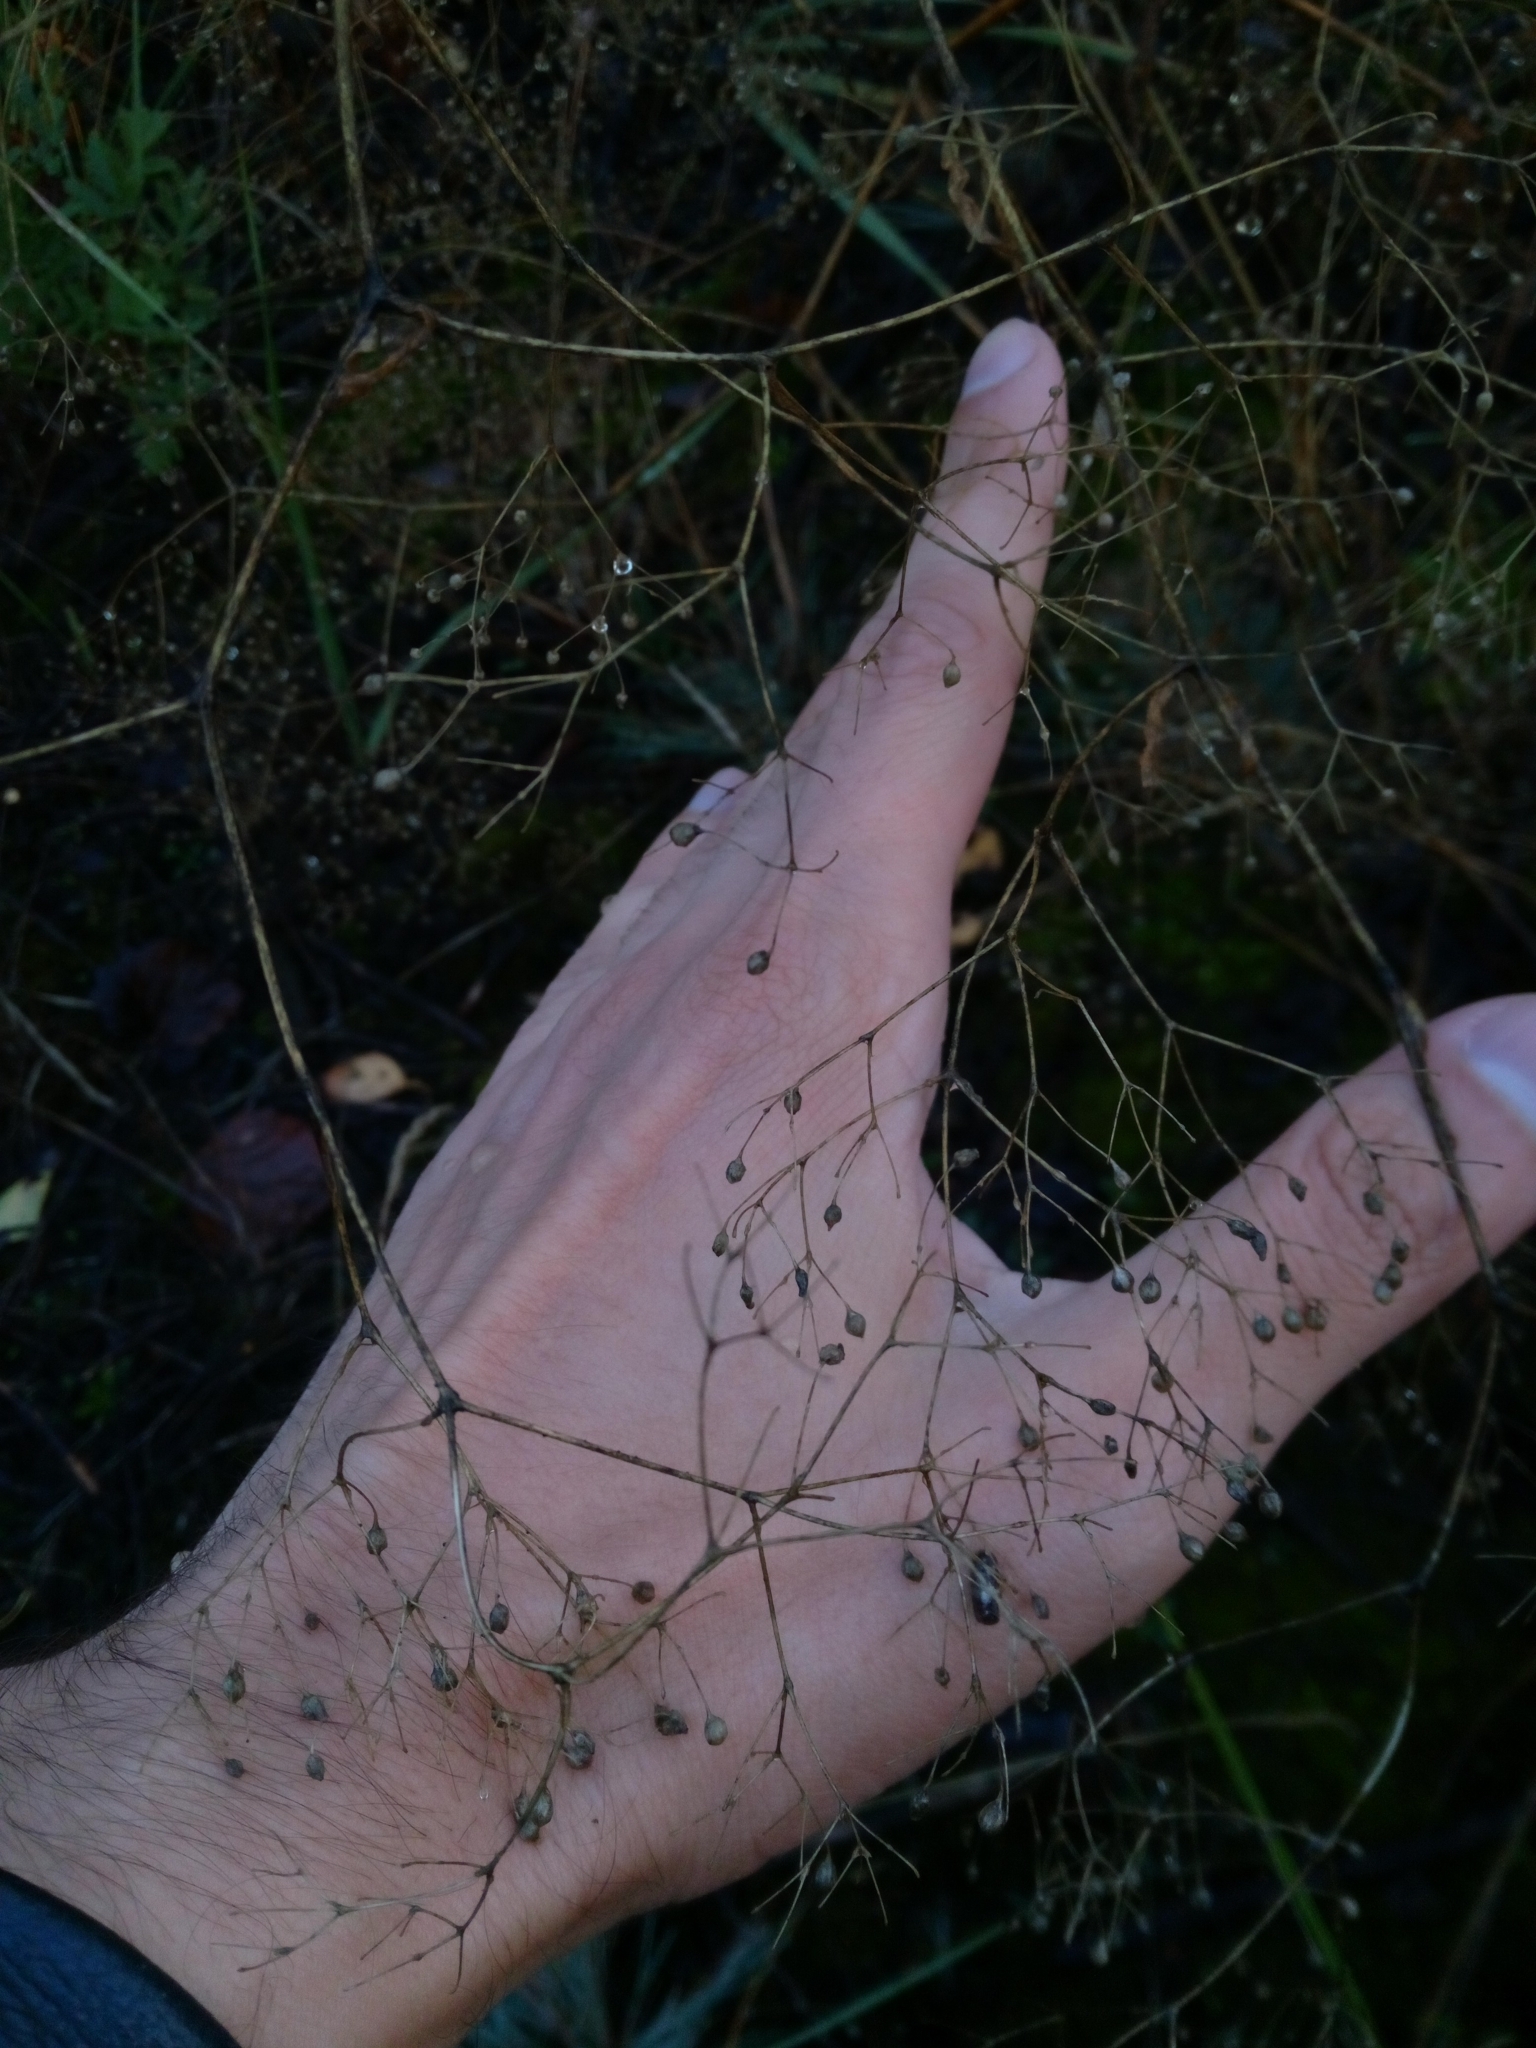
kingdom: Plantae
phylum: Tracheophyta
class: Magnoliopsida
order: Caryophyllales
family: Caryophyllaceae
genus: Gypsophila
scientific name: Gypsophila paniculata
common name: Baby's-breath
